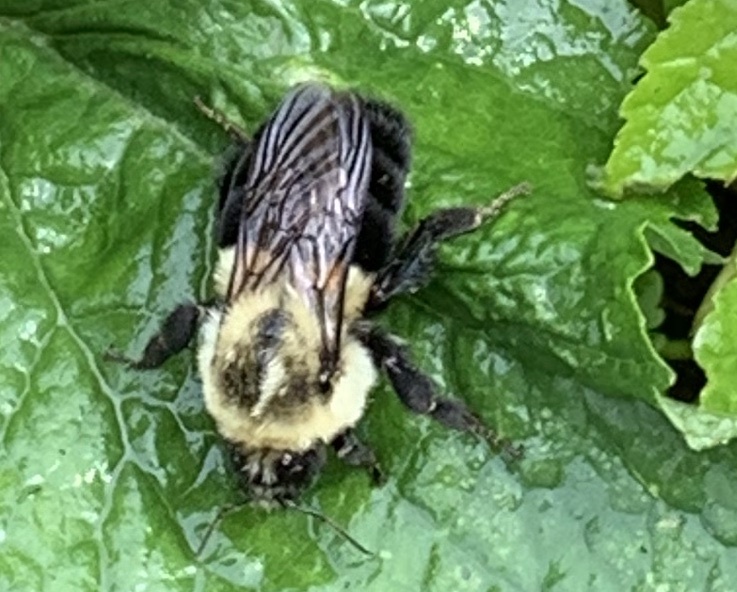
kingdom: Animalia
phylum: Arthropoda
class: Insecta
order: Hymenoptera
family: Apidae
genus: Bombus
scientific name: Bombus impatiens
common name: Common eastern bumble bee
